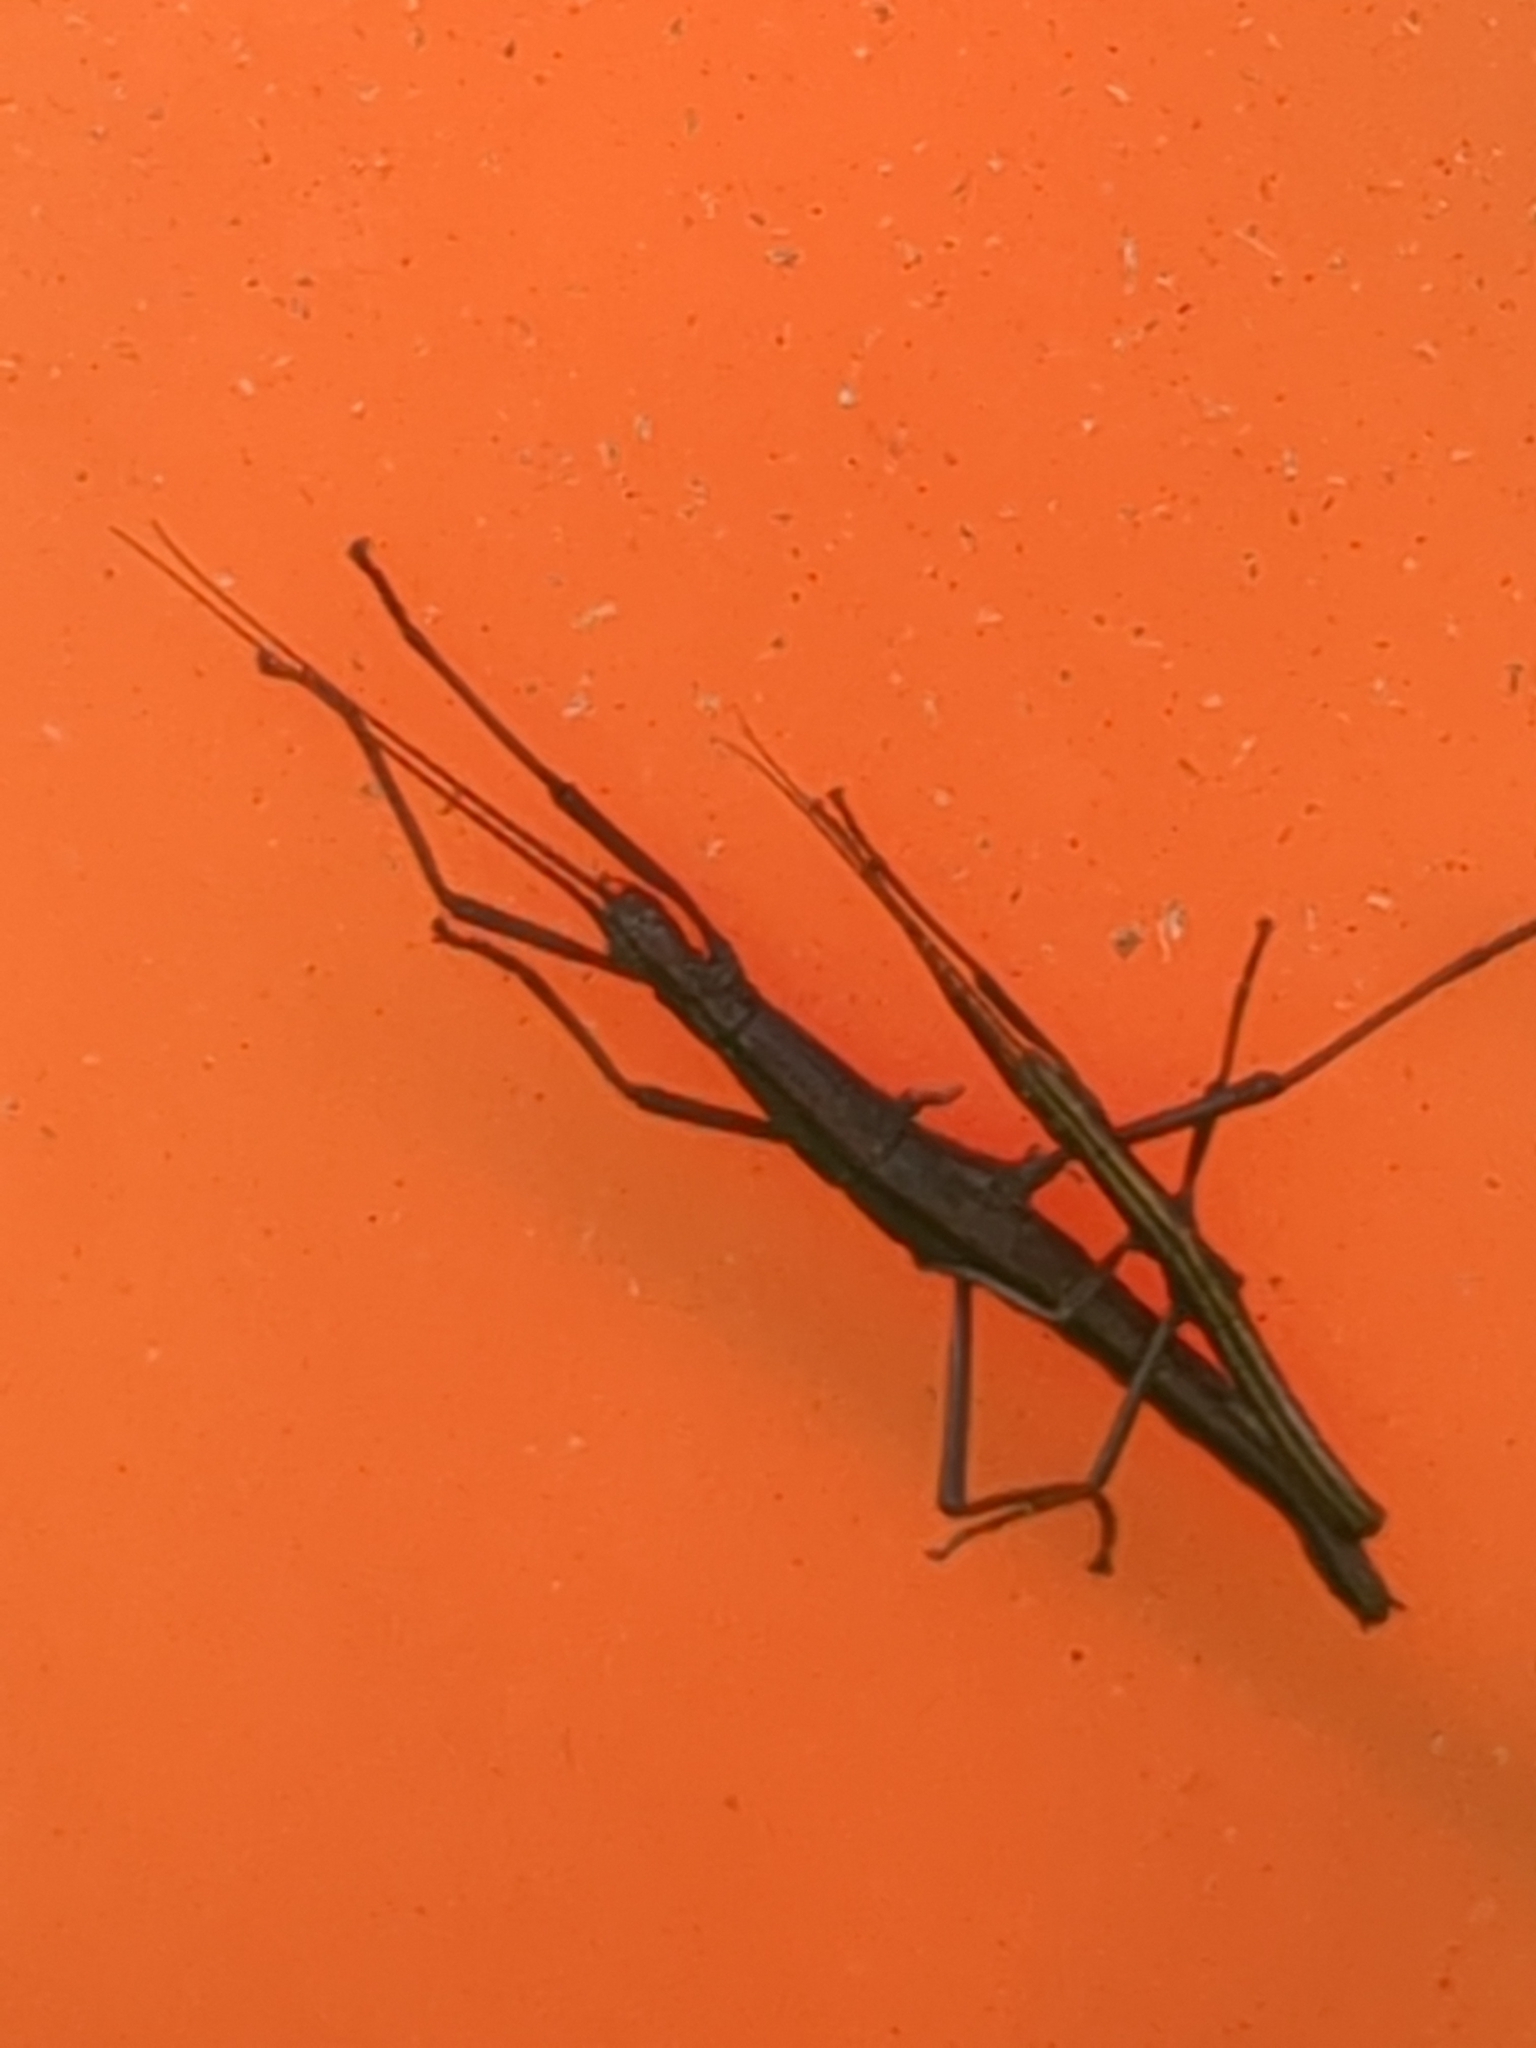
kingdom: Animalia
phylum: Arthropoda
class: Insecta
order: Phasmida
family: Pseudophasmatidae
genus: Anisomorpha
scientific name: Anisomorpha buprestoides
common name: Florida stick insect
